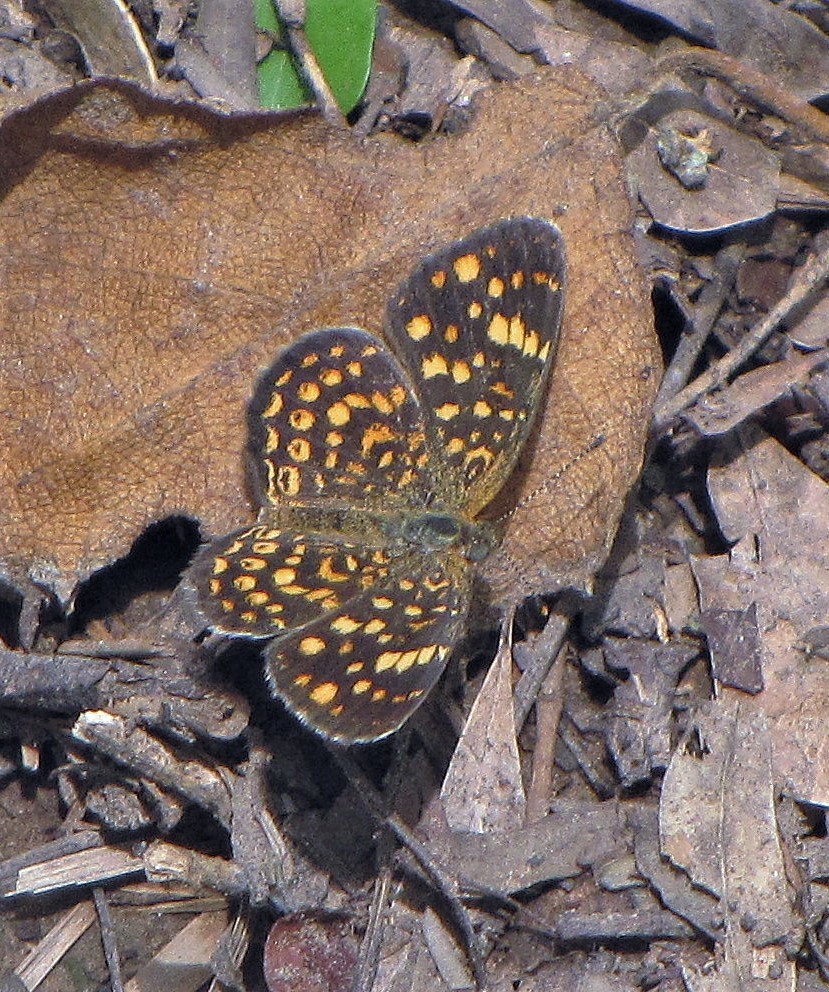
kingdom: Animalia
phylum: Arthropoda
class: Insecta
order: Lepidoptera
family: Nymphalidae
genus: Phystis
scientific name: Phystis simois
